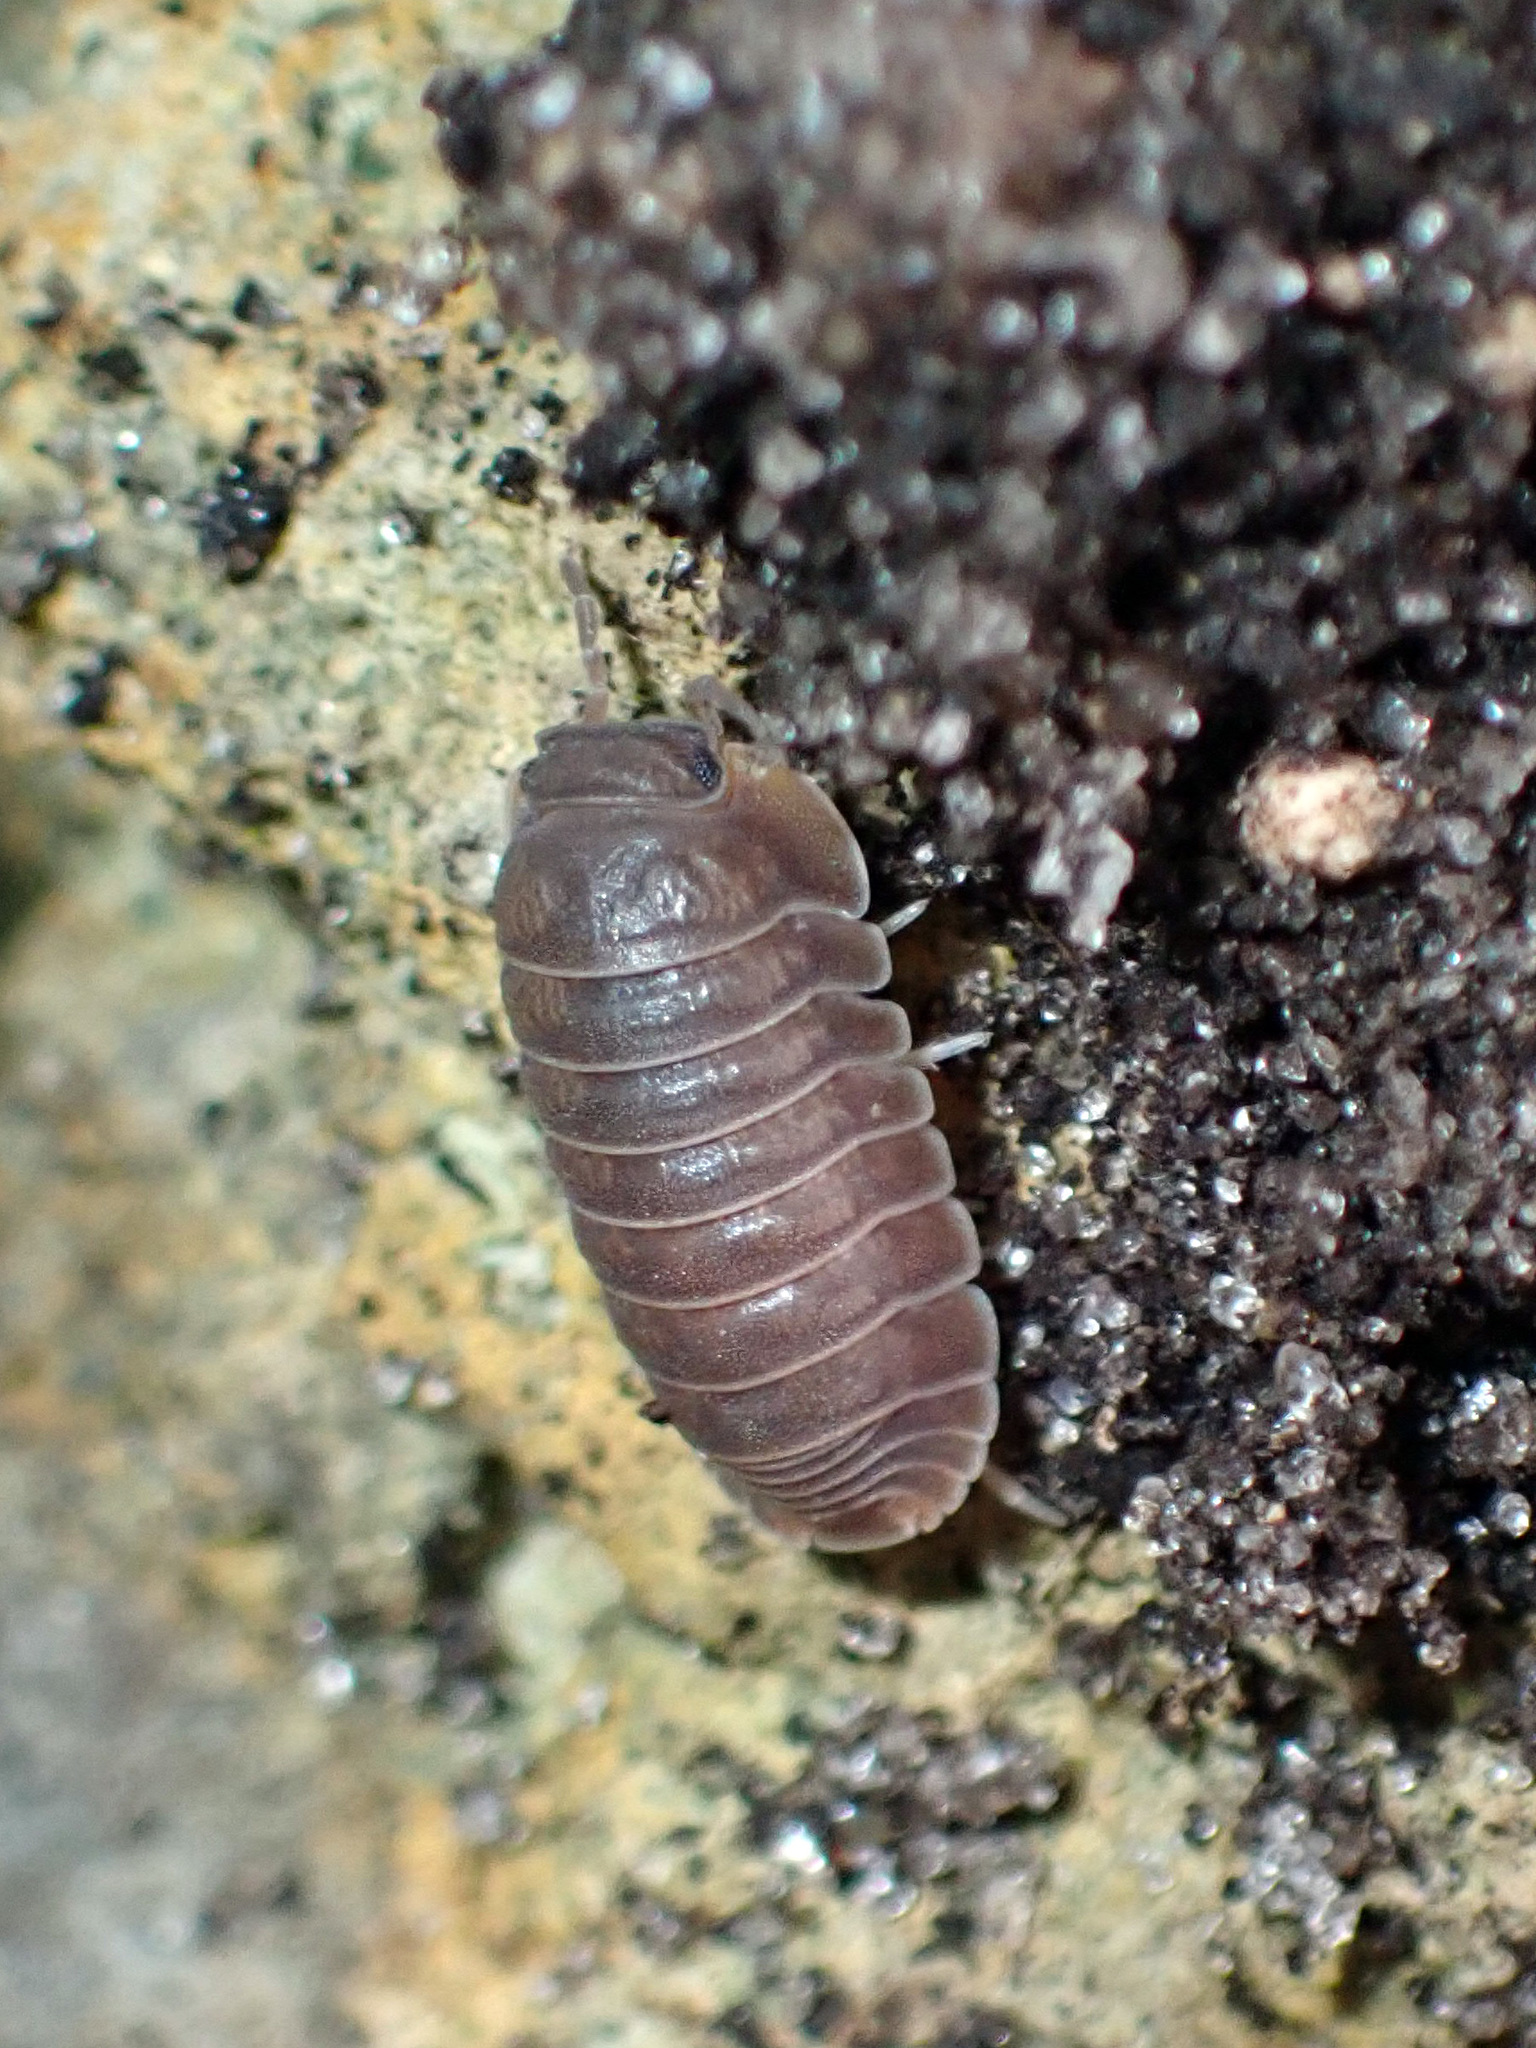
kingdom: Animalia
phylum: Arthropoda
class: Malacostraca
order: Isopoda
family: Armadillidae
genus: Cubaris
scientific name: Cubaris murina
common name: Pillbug
